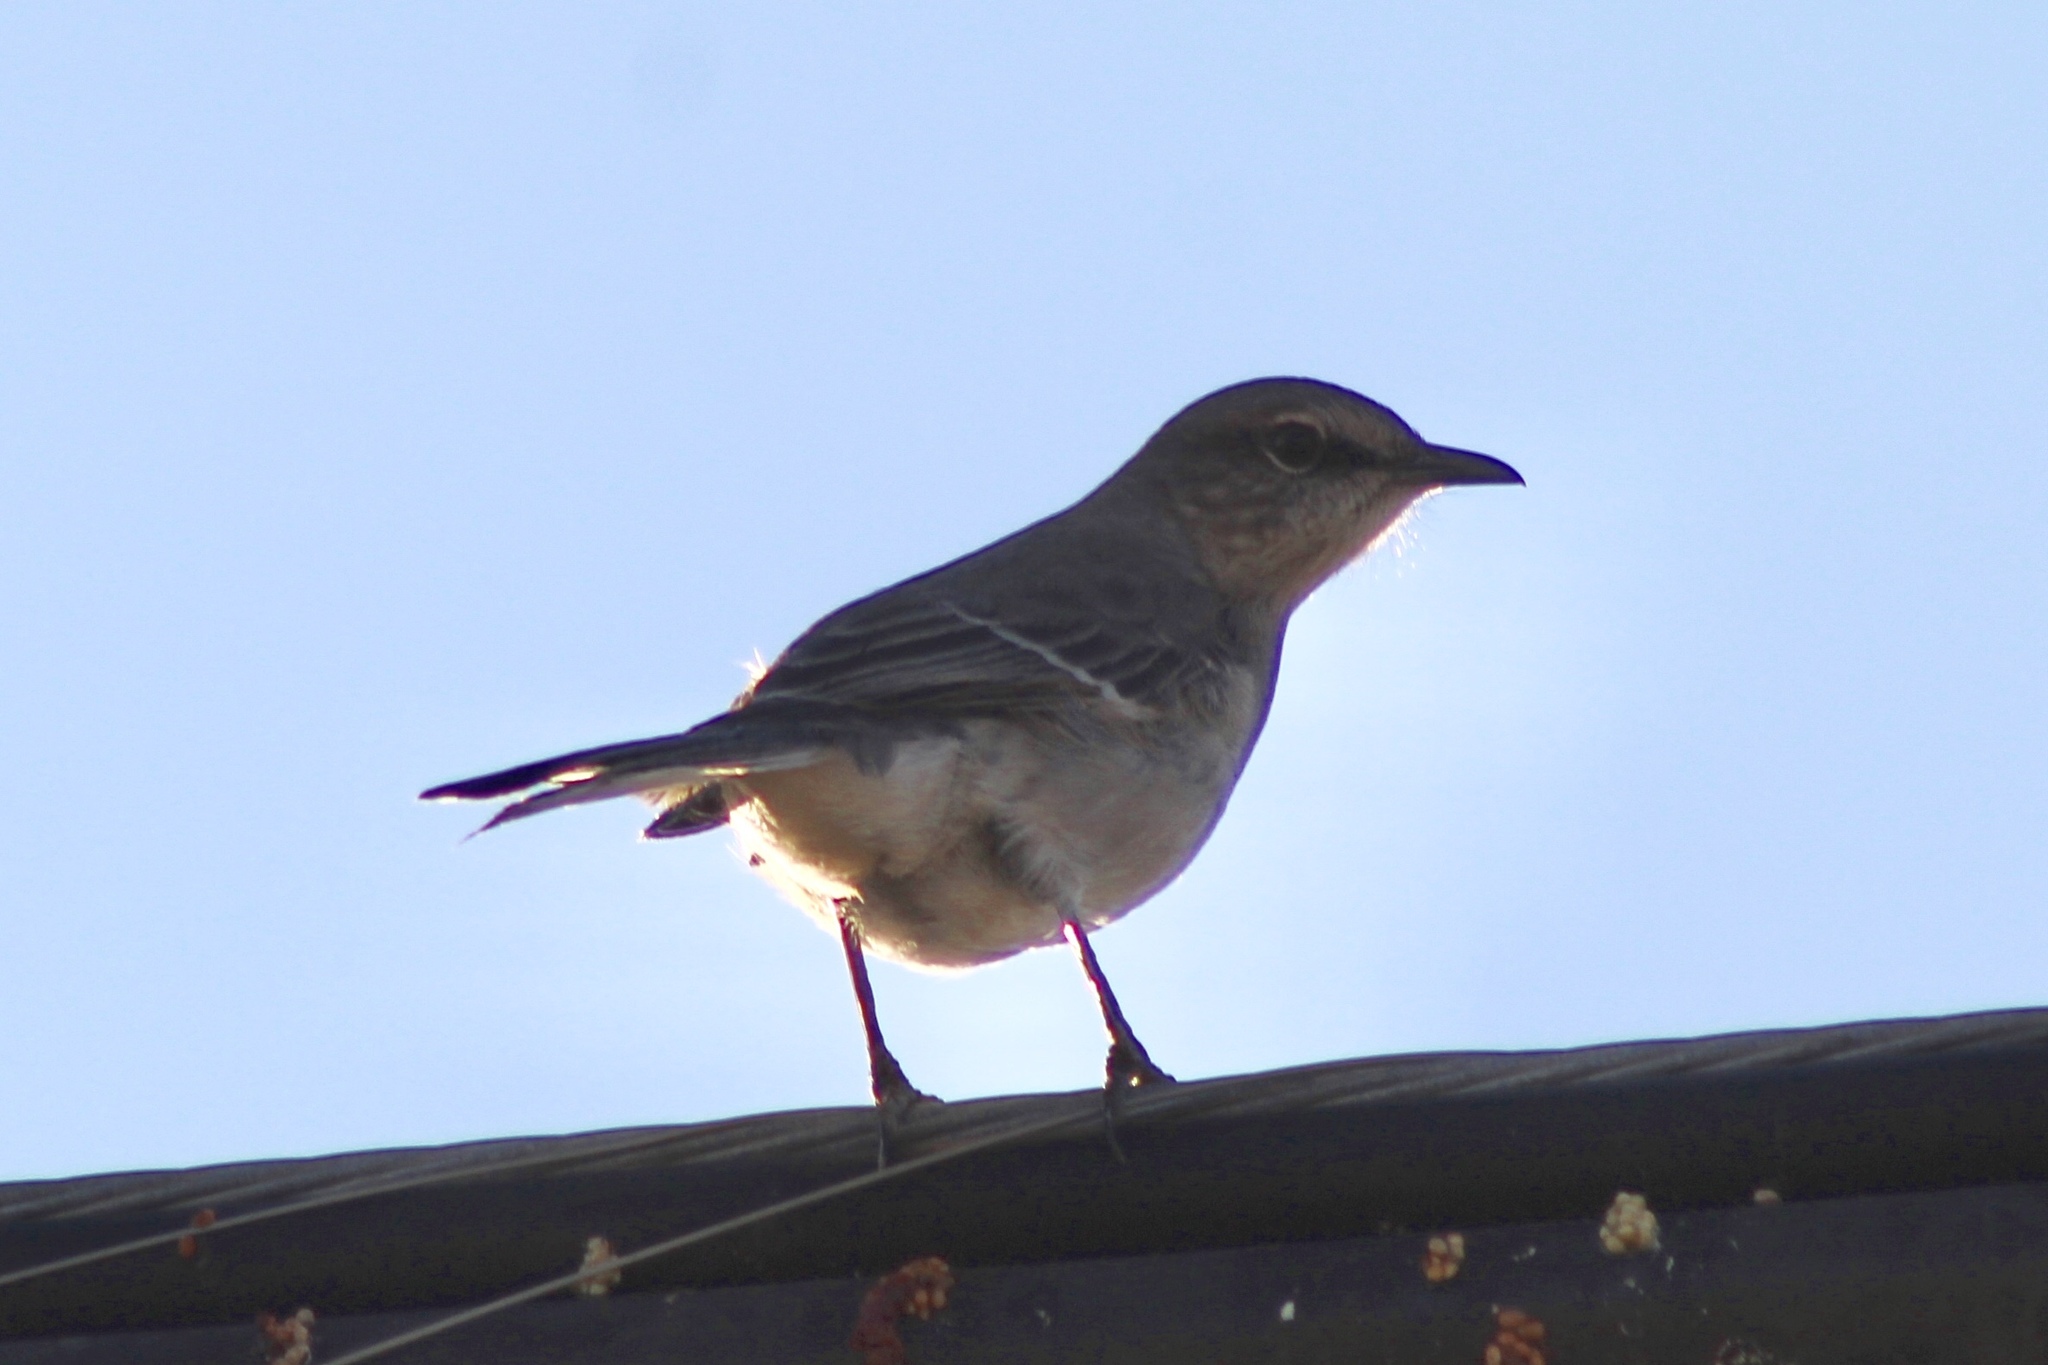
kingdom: Animalia
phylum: Chordata
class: Aves
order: Passeriformes
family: Mimidae
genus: Mimus
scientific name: Mimus polyglottos
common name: Northern mockingbird
